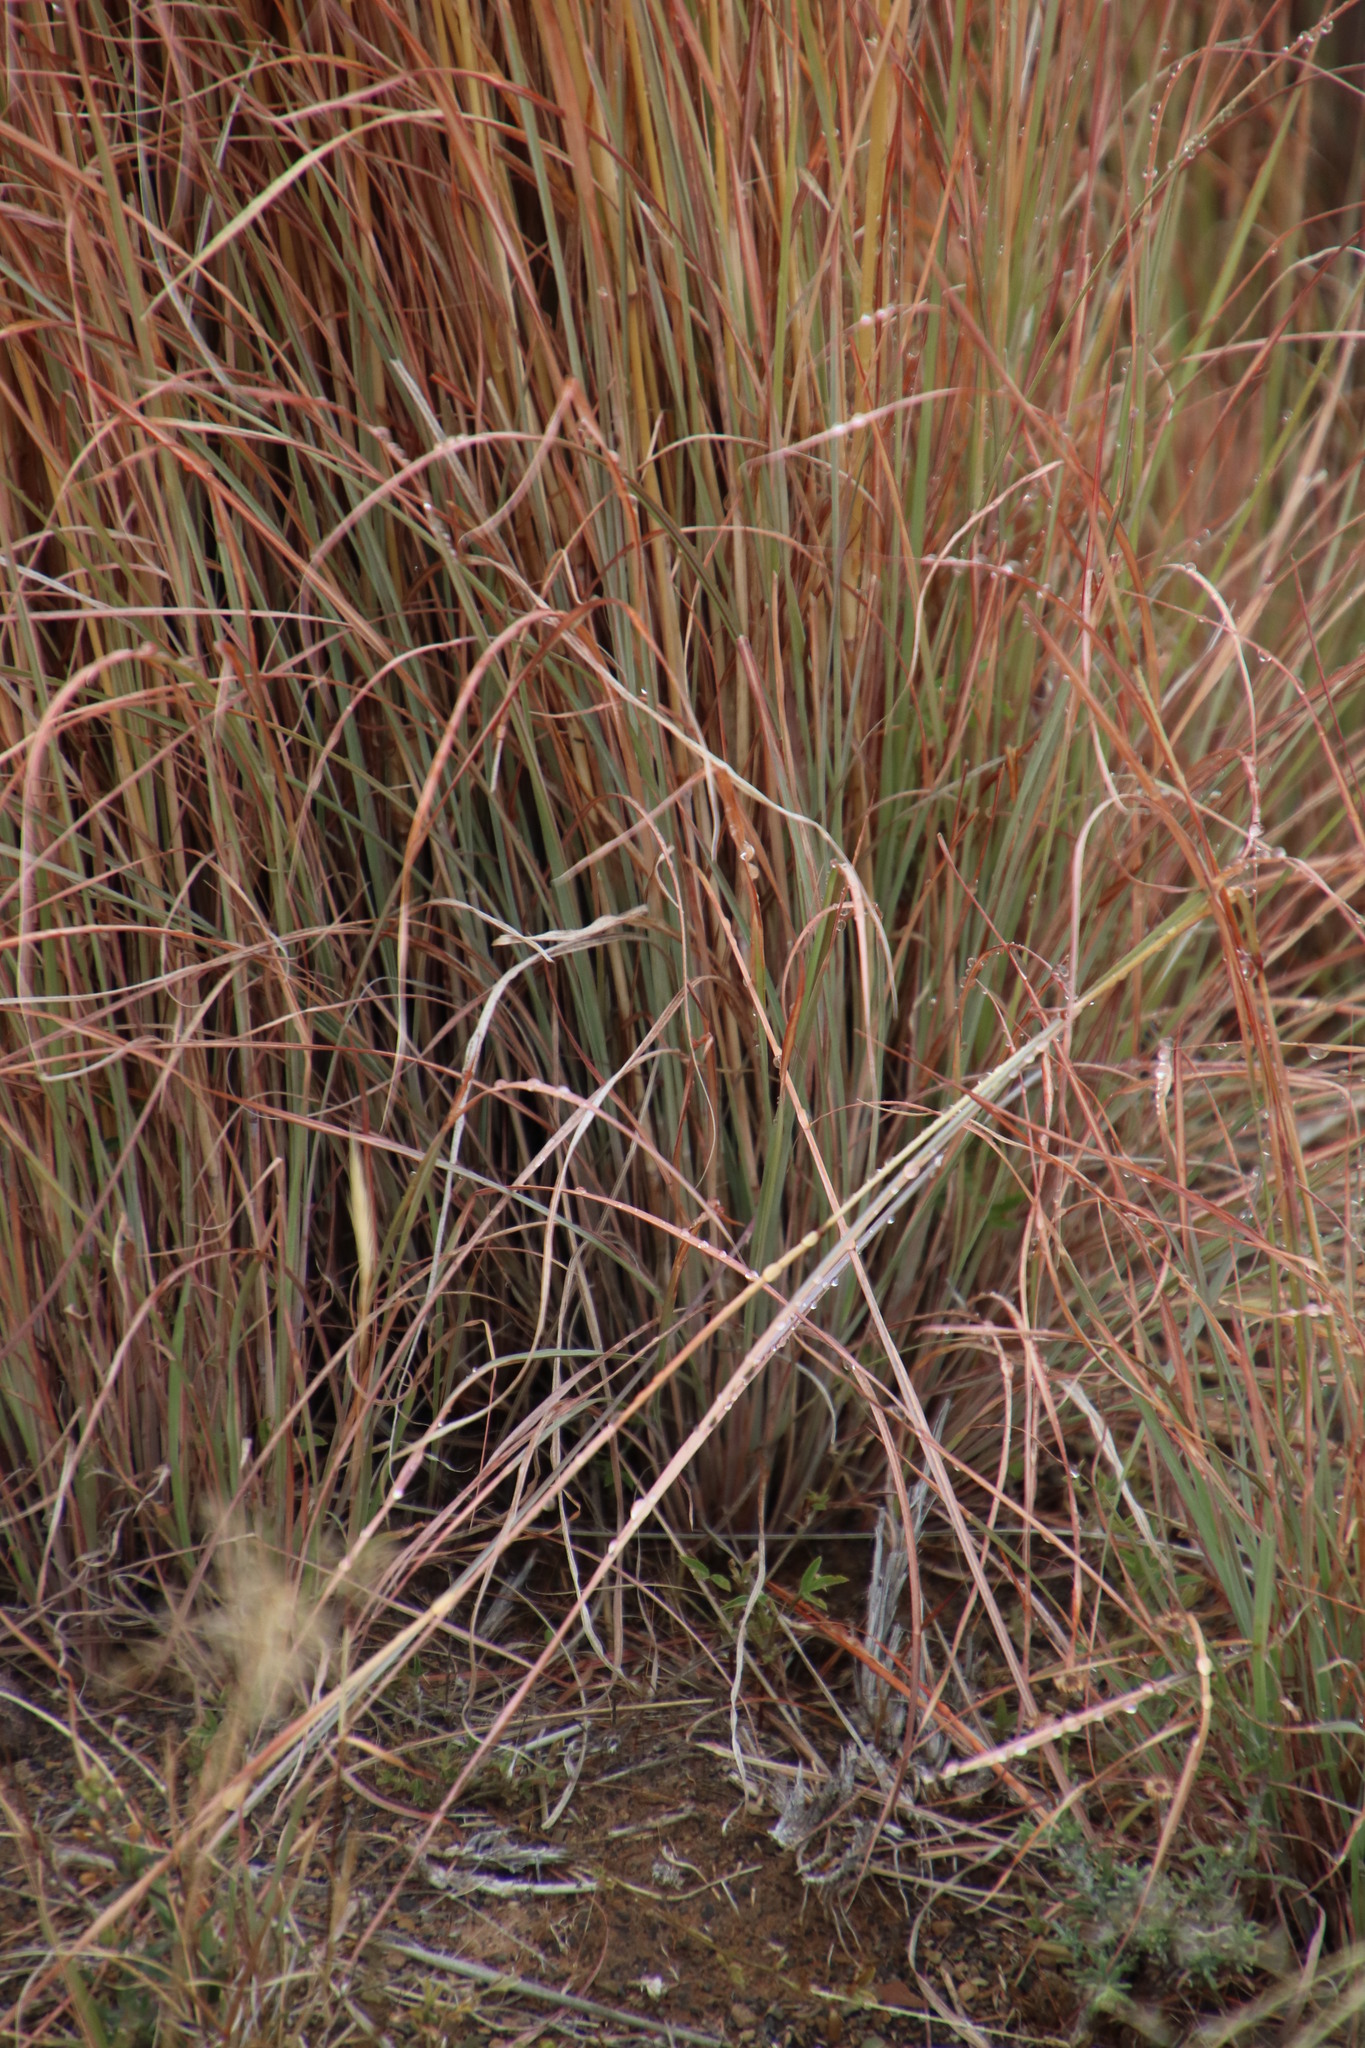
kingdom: Plantae
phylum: Tracheophyta
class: Liliopsida
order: Poales
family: Poaceae
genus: Hyparrhenia
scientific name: Hyparrhenia hirta
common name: Thatching grass
